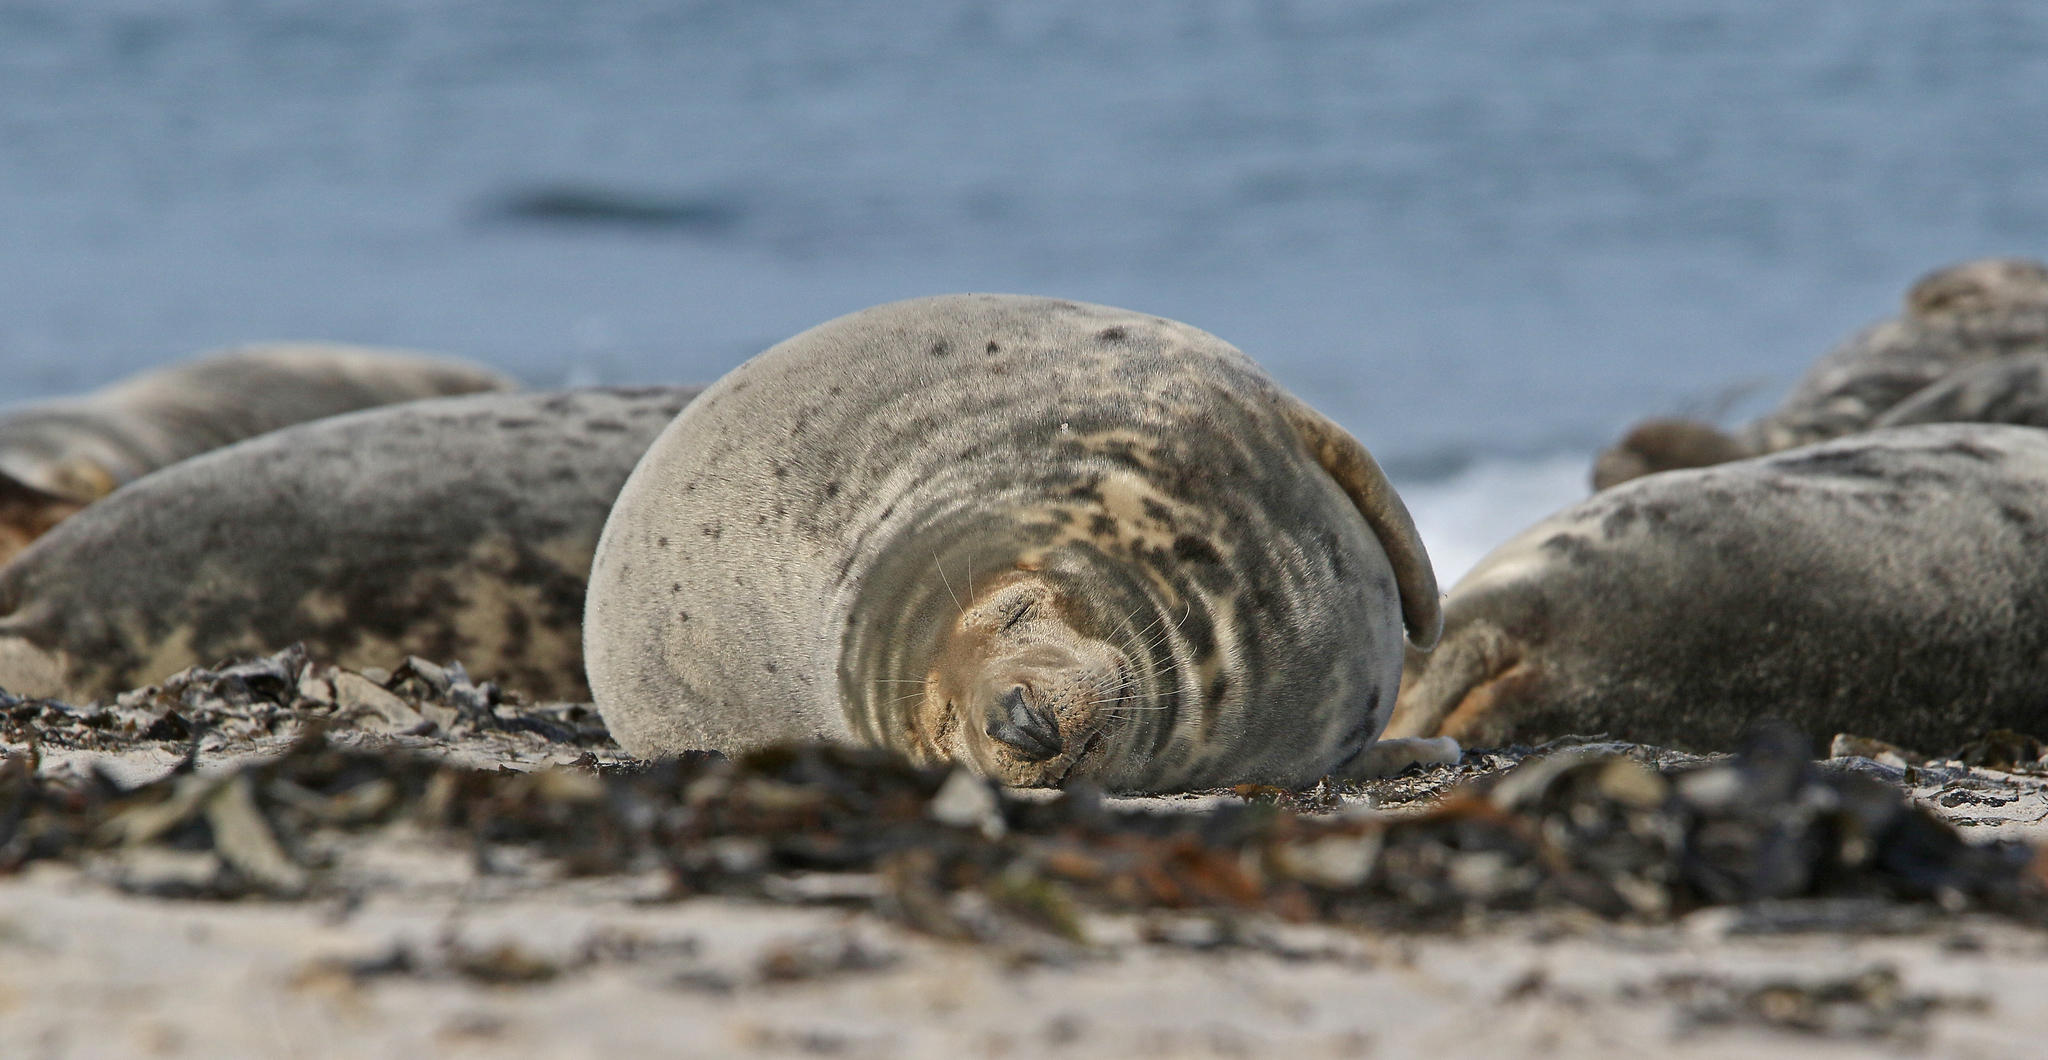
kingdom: Animalia
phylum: Chordata
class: Mammalia
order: Carnivora
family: Phocidae
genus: Halichoerus
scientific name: Halichoerus grypus
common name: Grey seal
